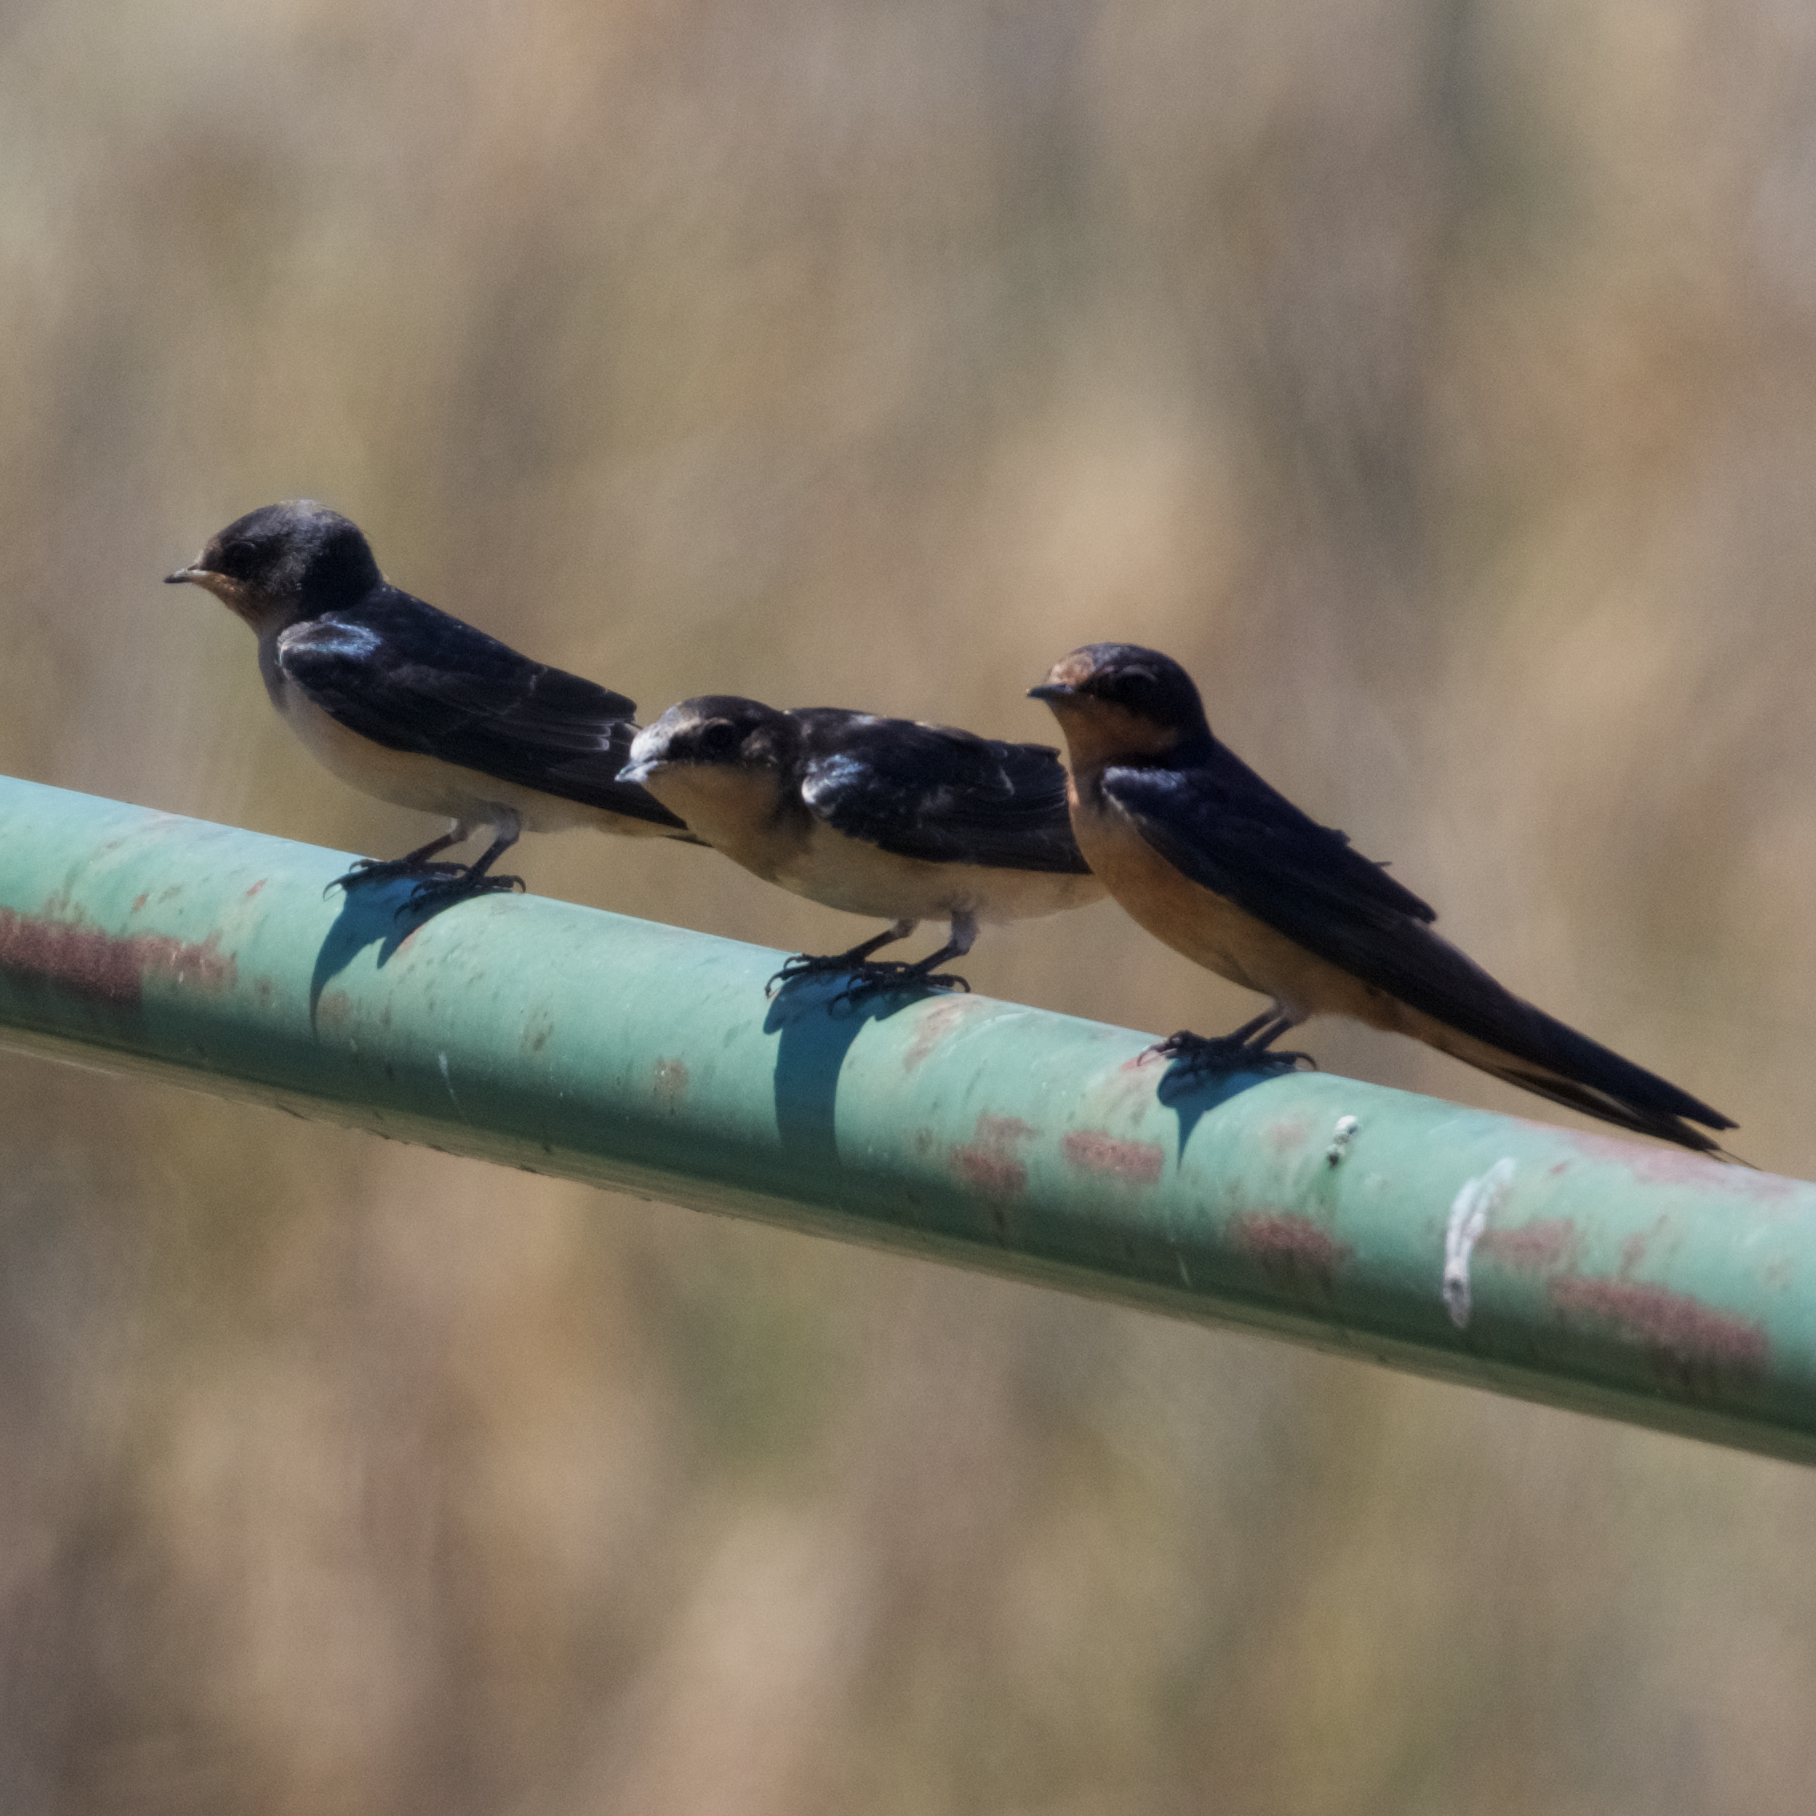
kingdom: Animalia
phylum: Chordata
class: Aves
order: Passeriformes
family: Hirundinidae
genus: Hirundo
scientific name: Hirundo rustica
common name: Barn swallow
